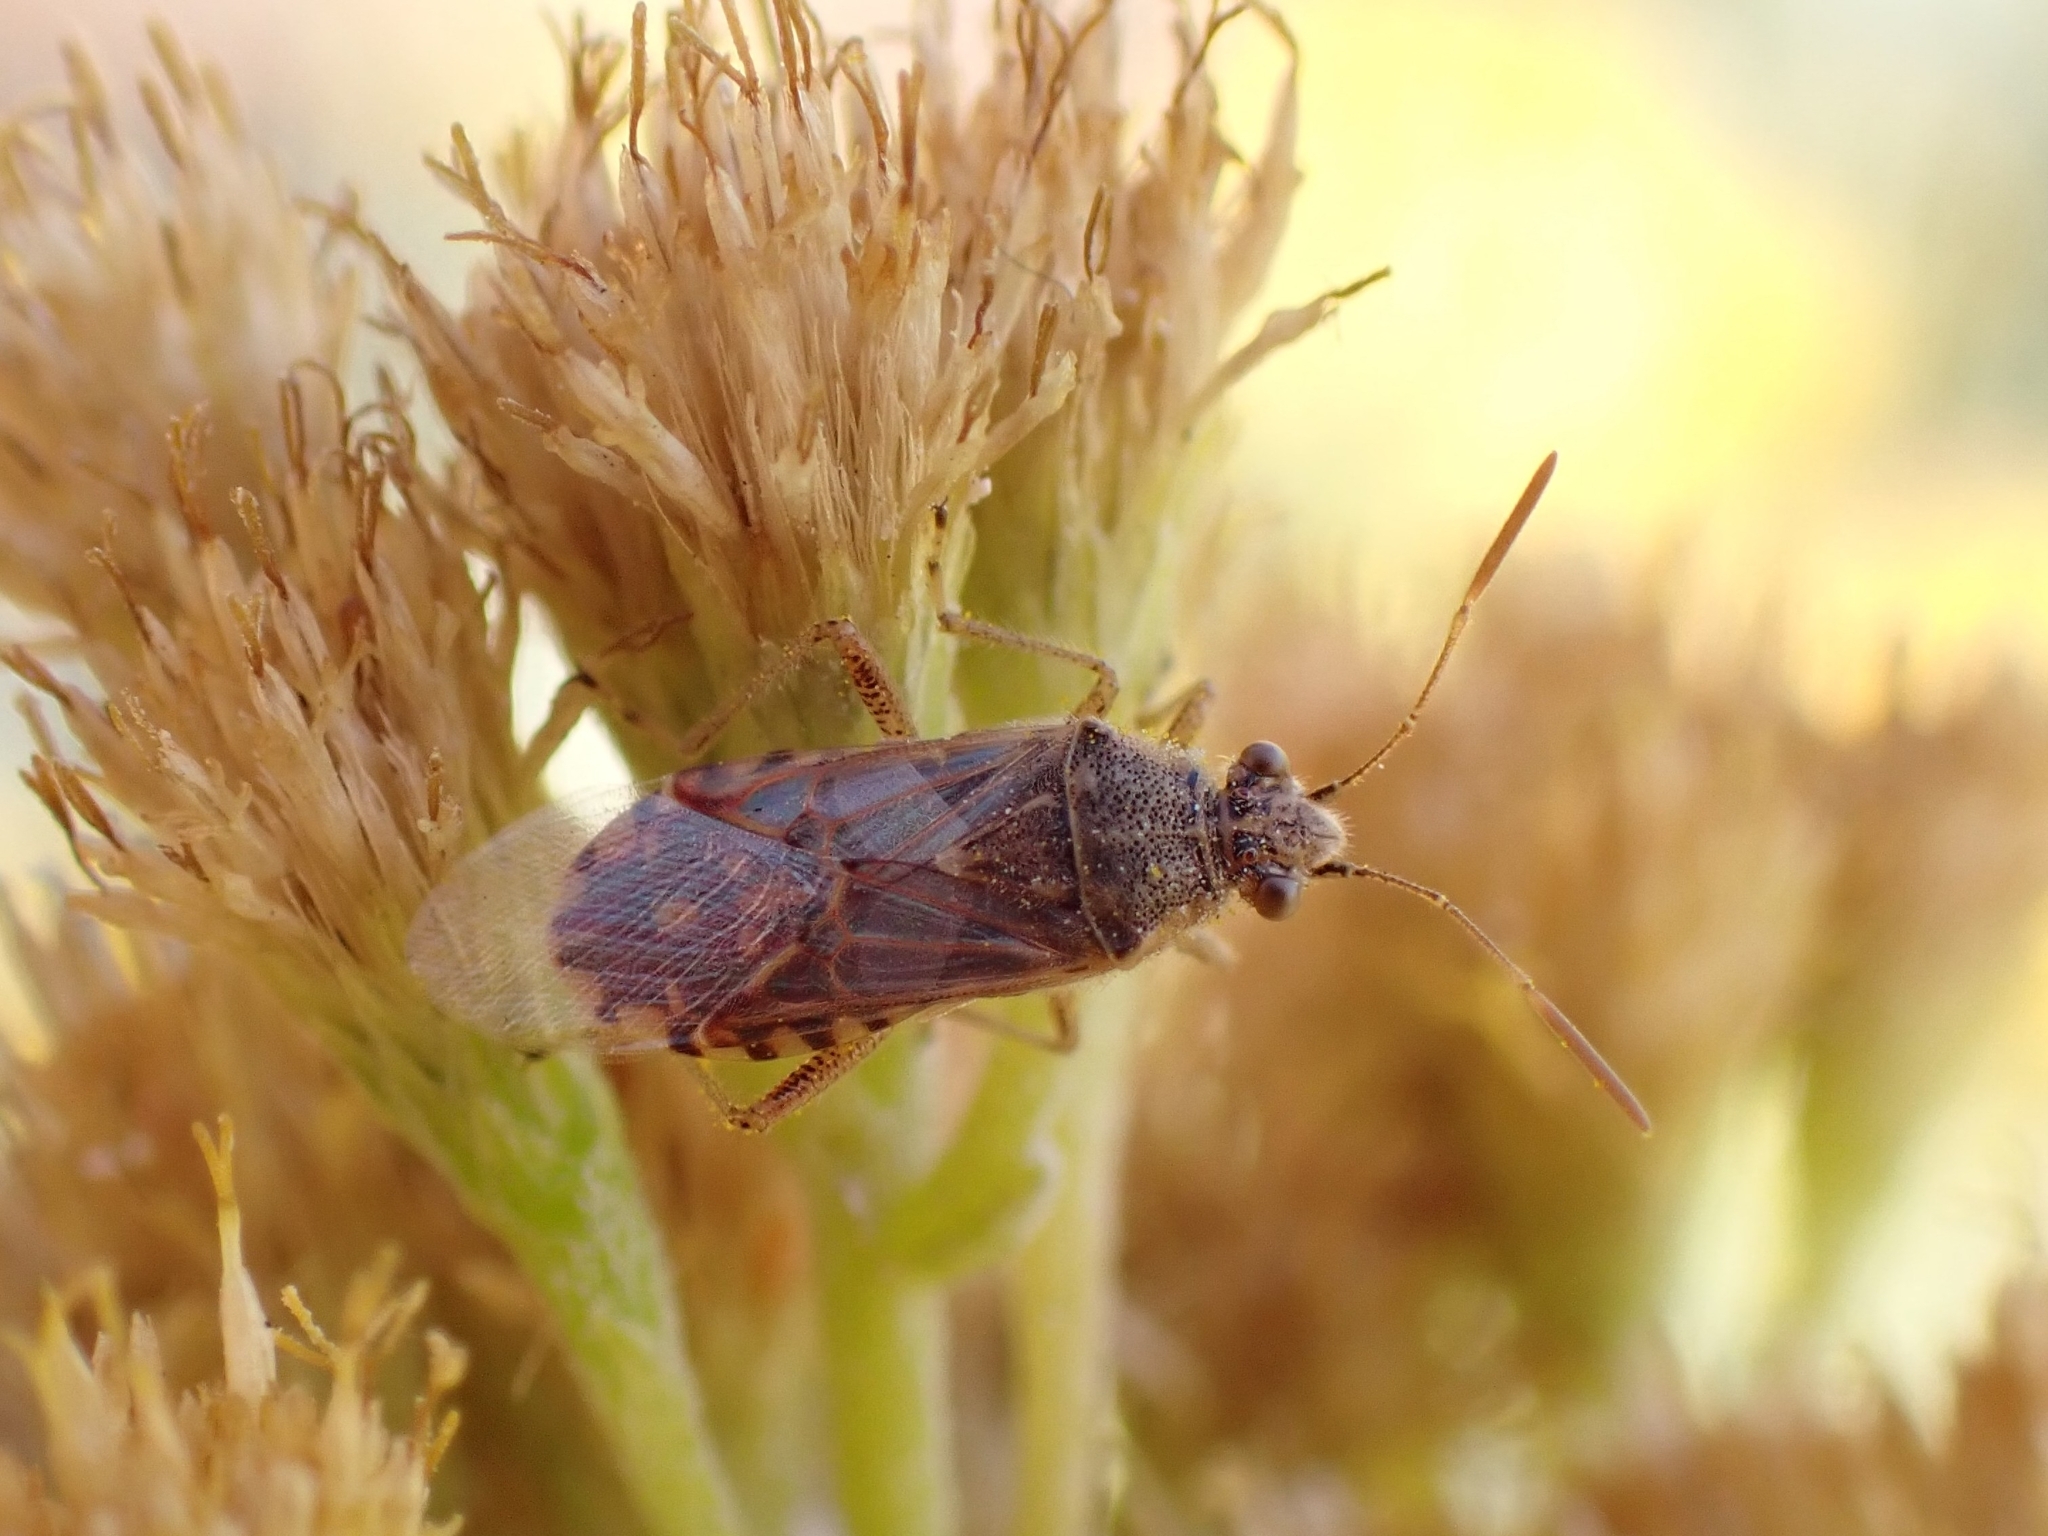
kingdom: Animalia
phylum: Arthropoda
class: Insecta
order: Hemiptera
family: Rhopalidae
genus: Liorhyssus
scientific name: Liorhyssus hyalinus
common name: Scentless plant bug
